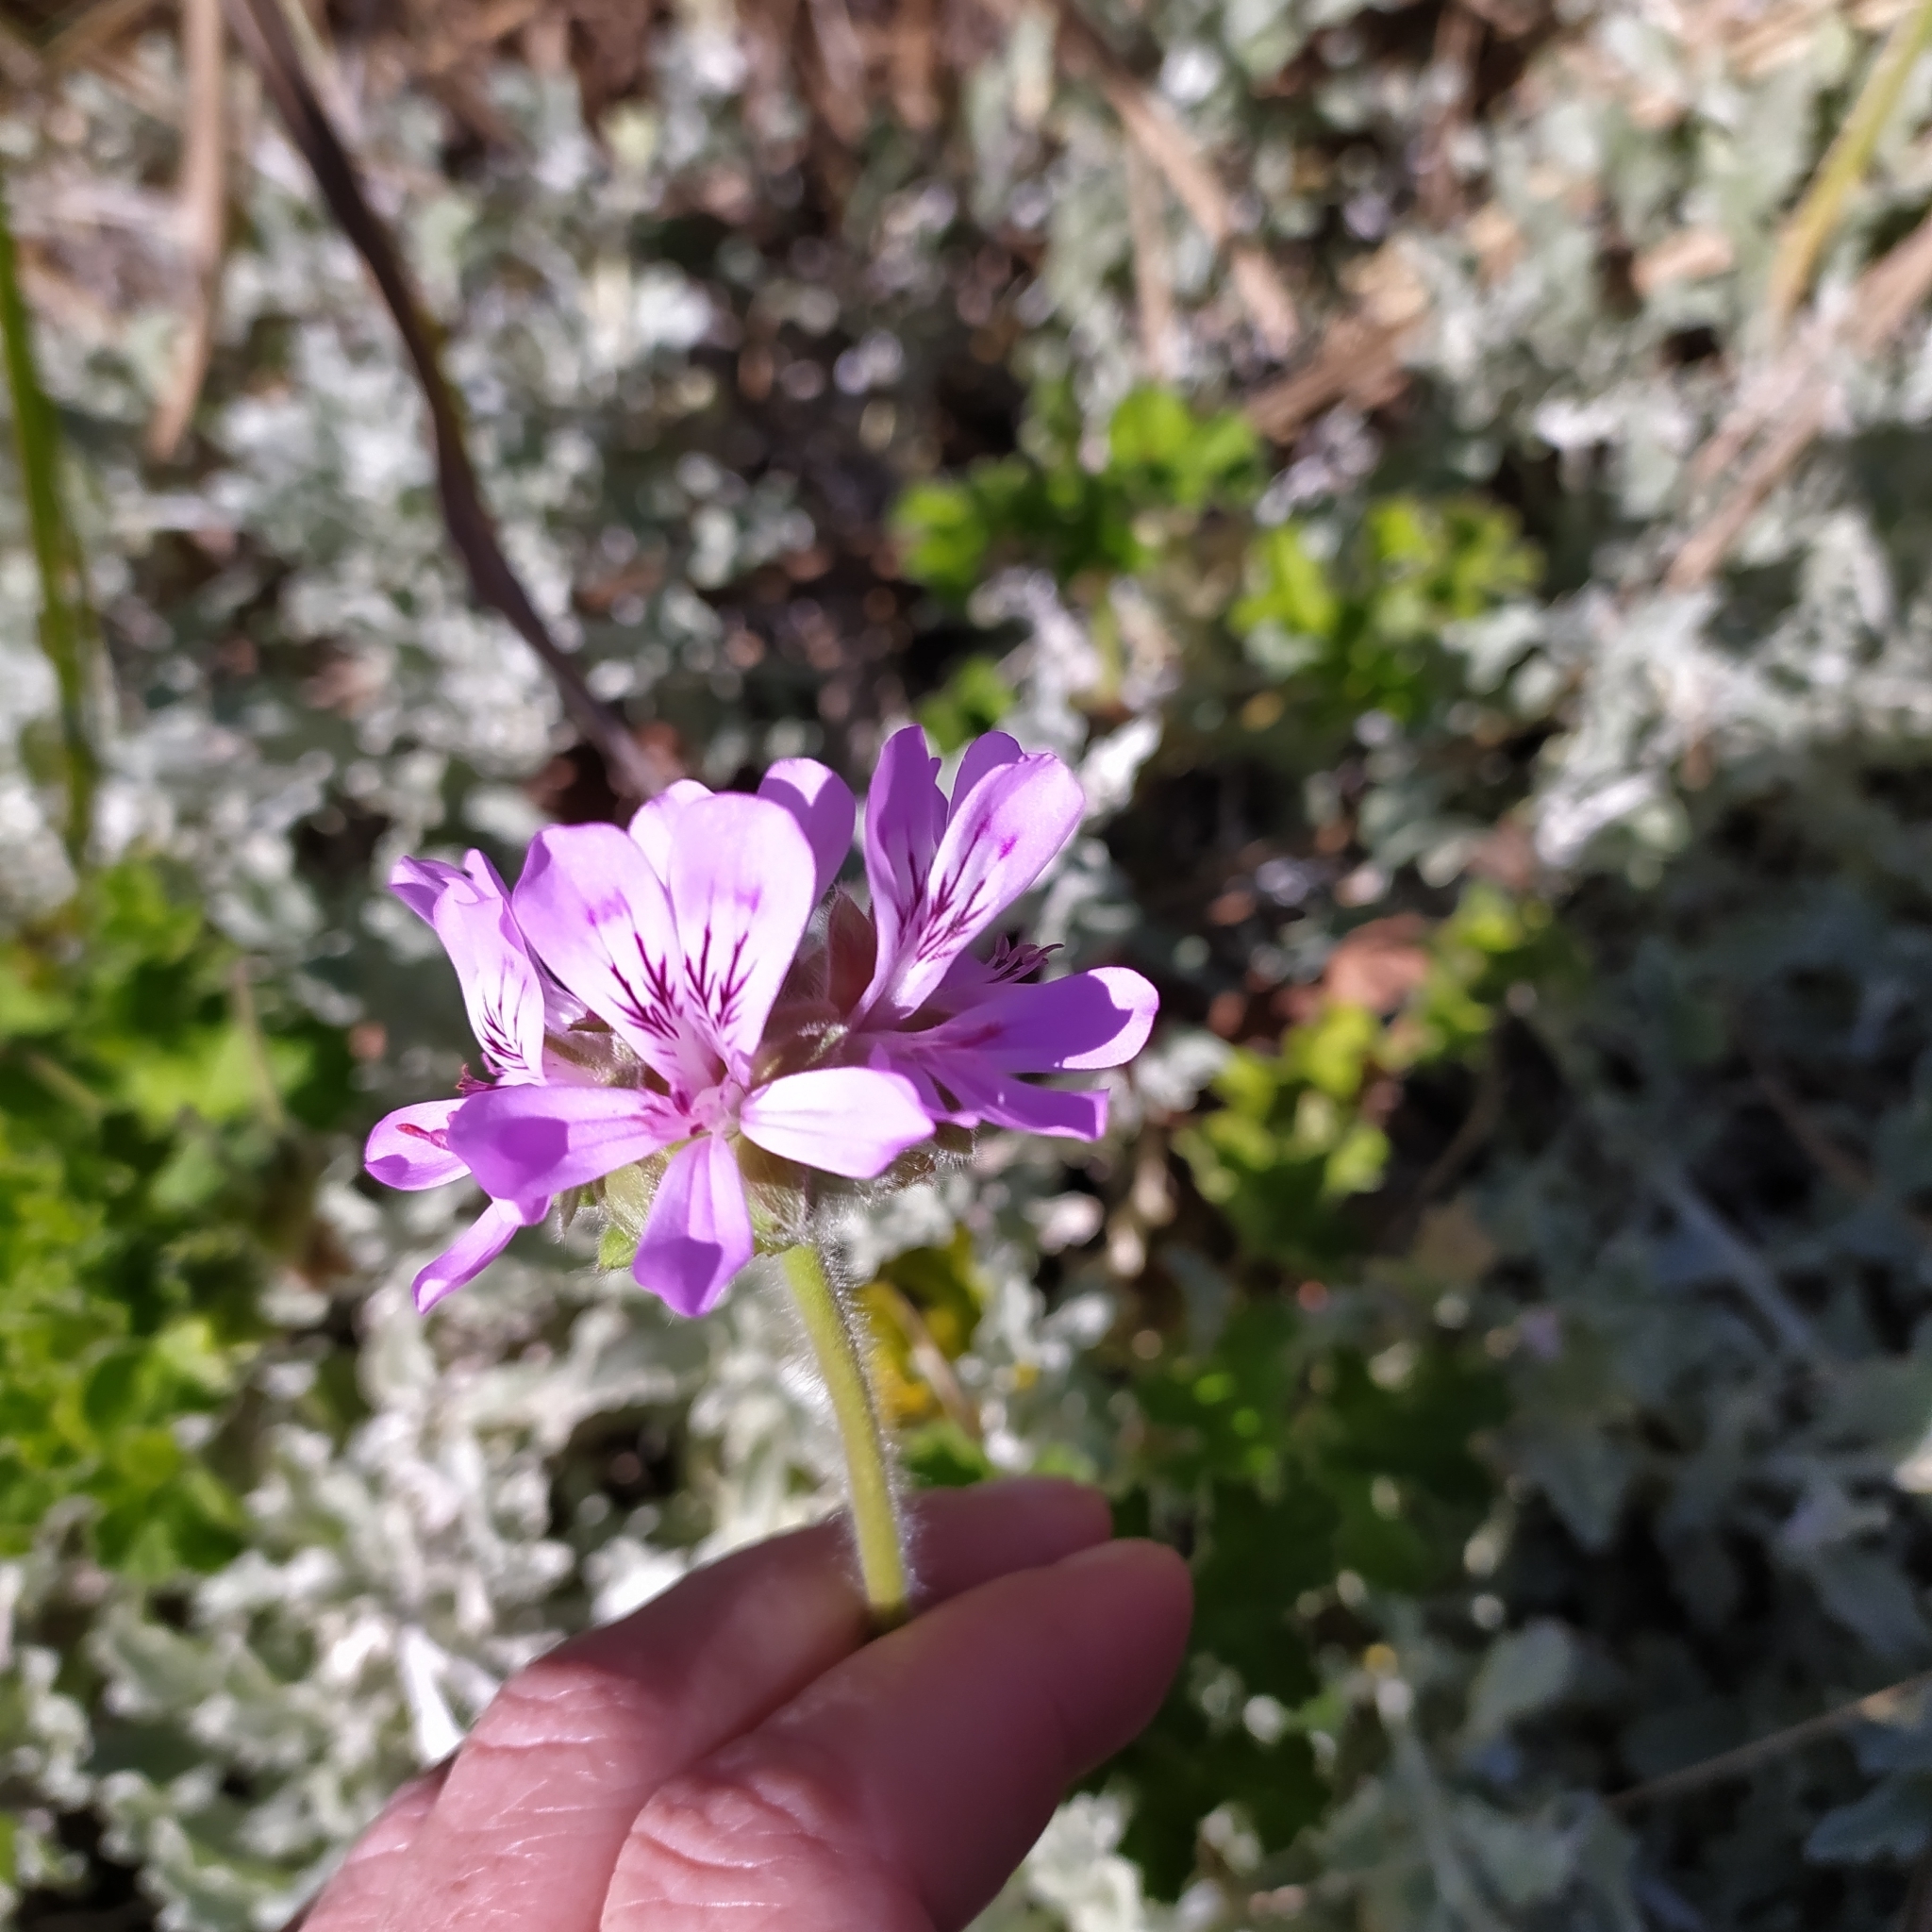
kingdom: Plantae
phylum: Tracheophyta
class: Magnoliopsida
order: Geraniales
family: Geraniaceae
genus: Pelargonium
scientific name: Pelargonium capitatum
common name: Rose scented geranium
